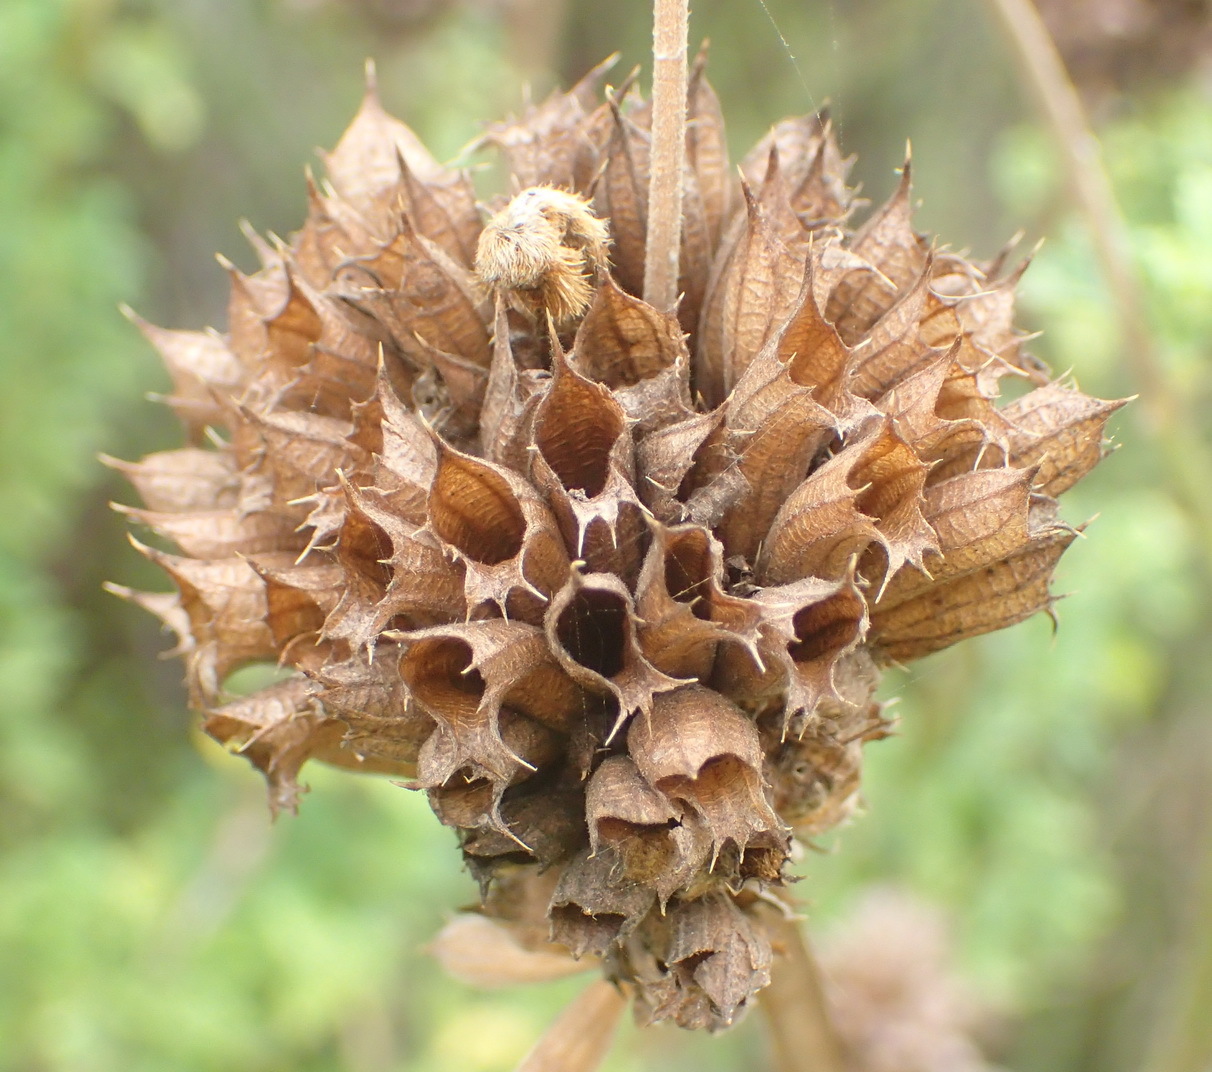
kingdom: Plantae
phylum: Tracheophyta
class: Magnoliopsida
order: Lamiales
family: Lamiaceae
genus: Leonotis
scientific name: Leonotis ocymifolia
